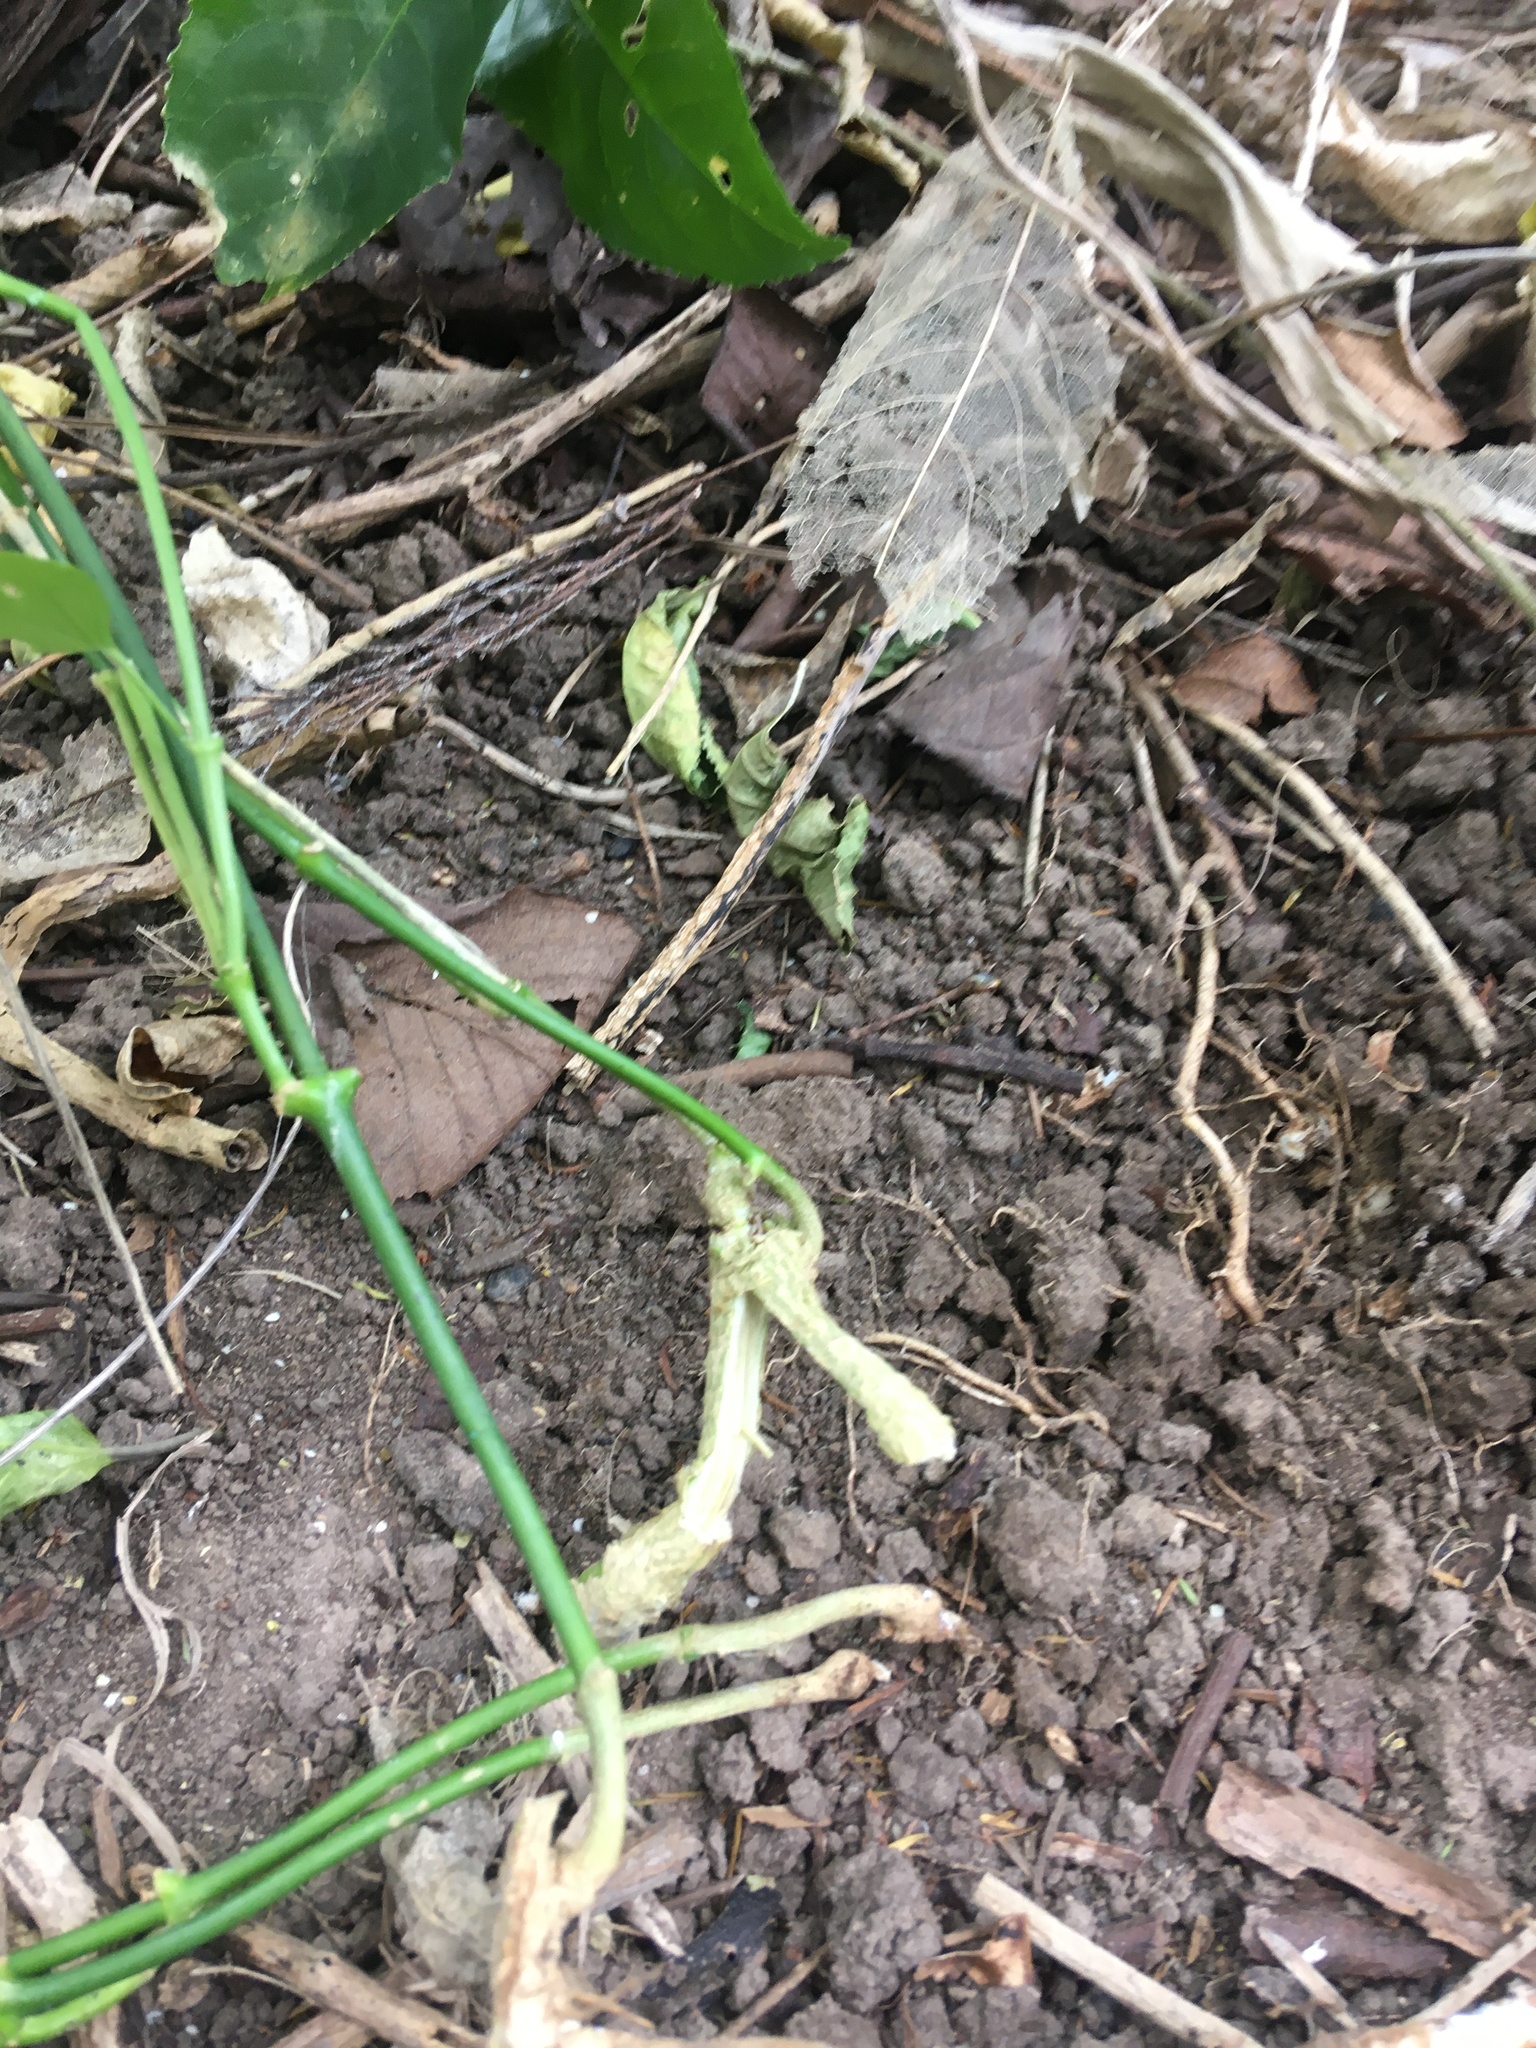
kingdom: Plantae
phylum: Tracheophyta
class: Magnoliopsida
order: Gentianales
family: Apocynaceae
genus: Araujia
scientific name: Araujia sericifera
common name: White bladderflower
